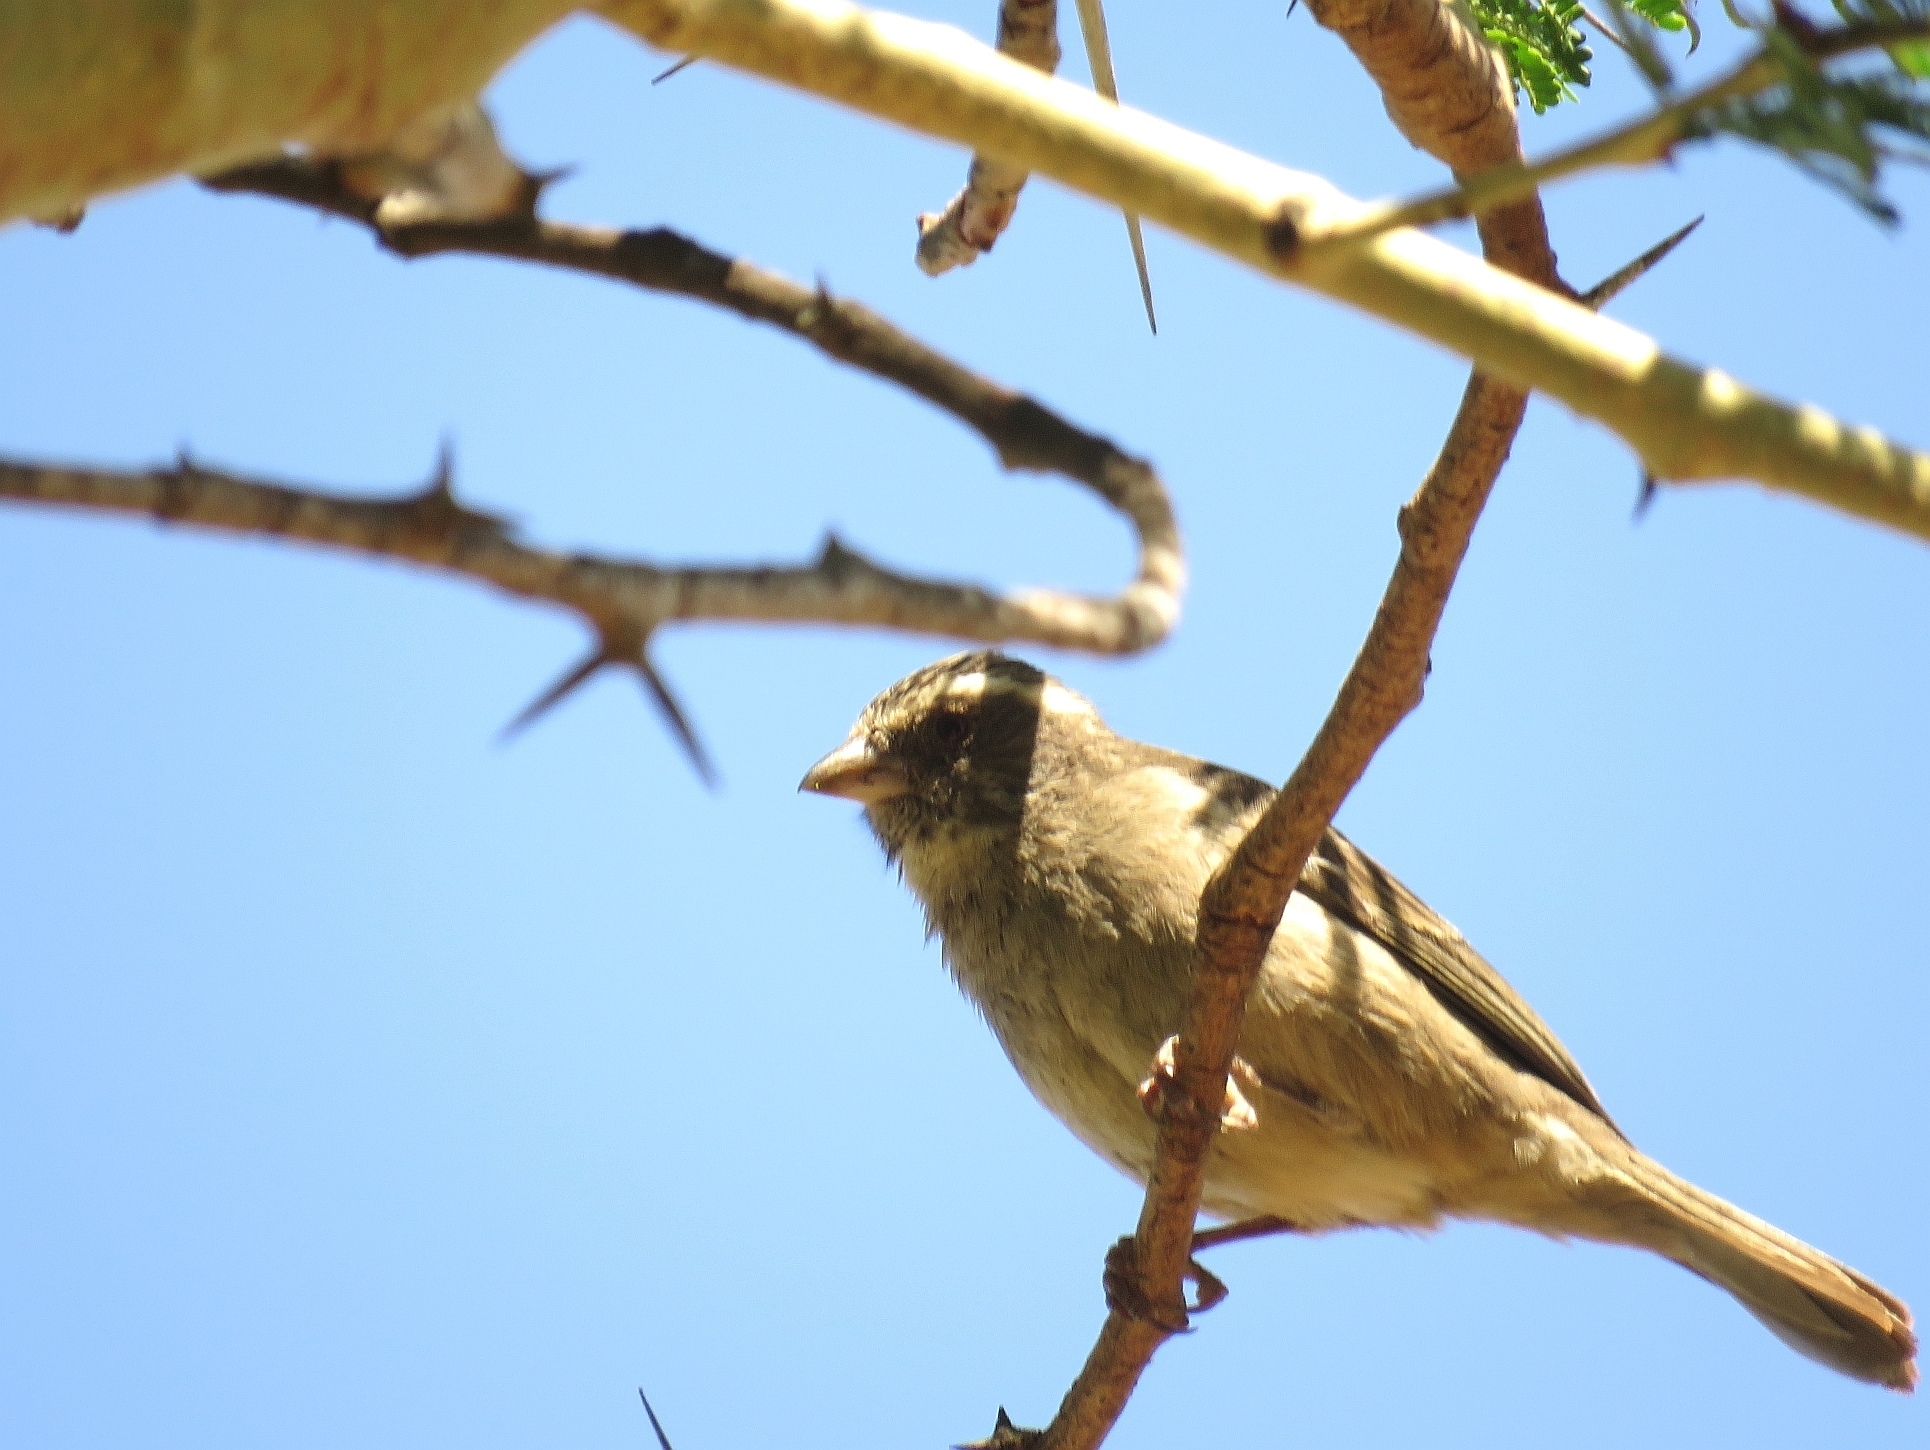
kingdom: Animalia
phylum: Chordata
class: Aves
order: Passeriformes
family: Fringillidae
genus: Crithagra
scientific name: Crithagra gularis
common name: Streaky-headed seedeater
